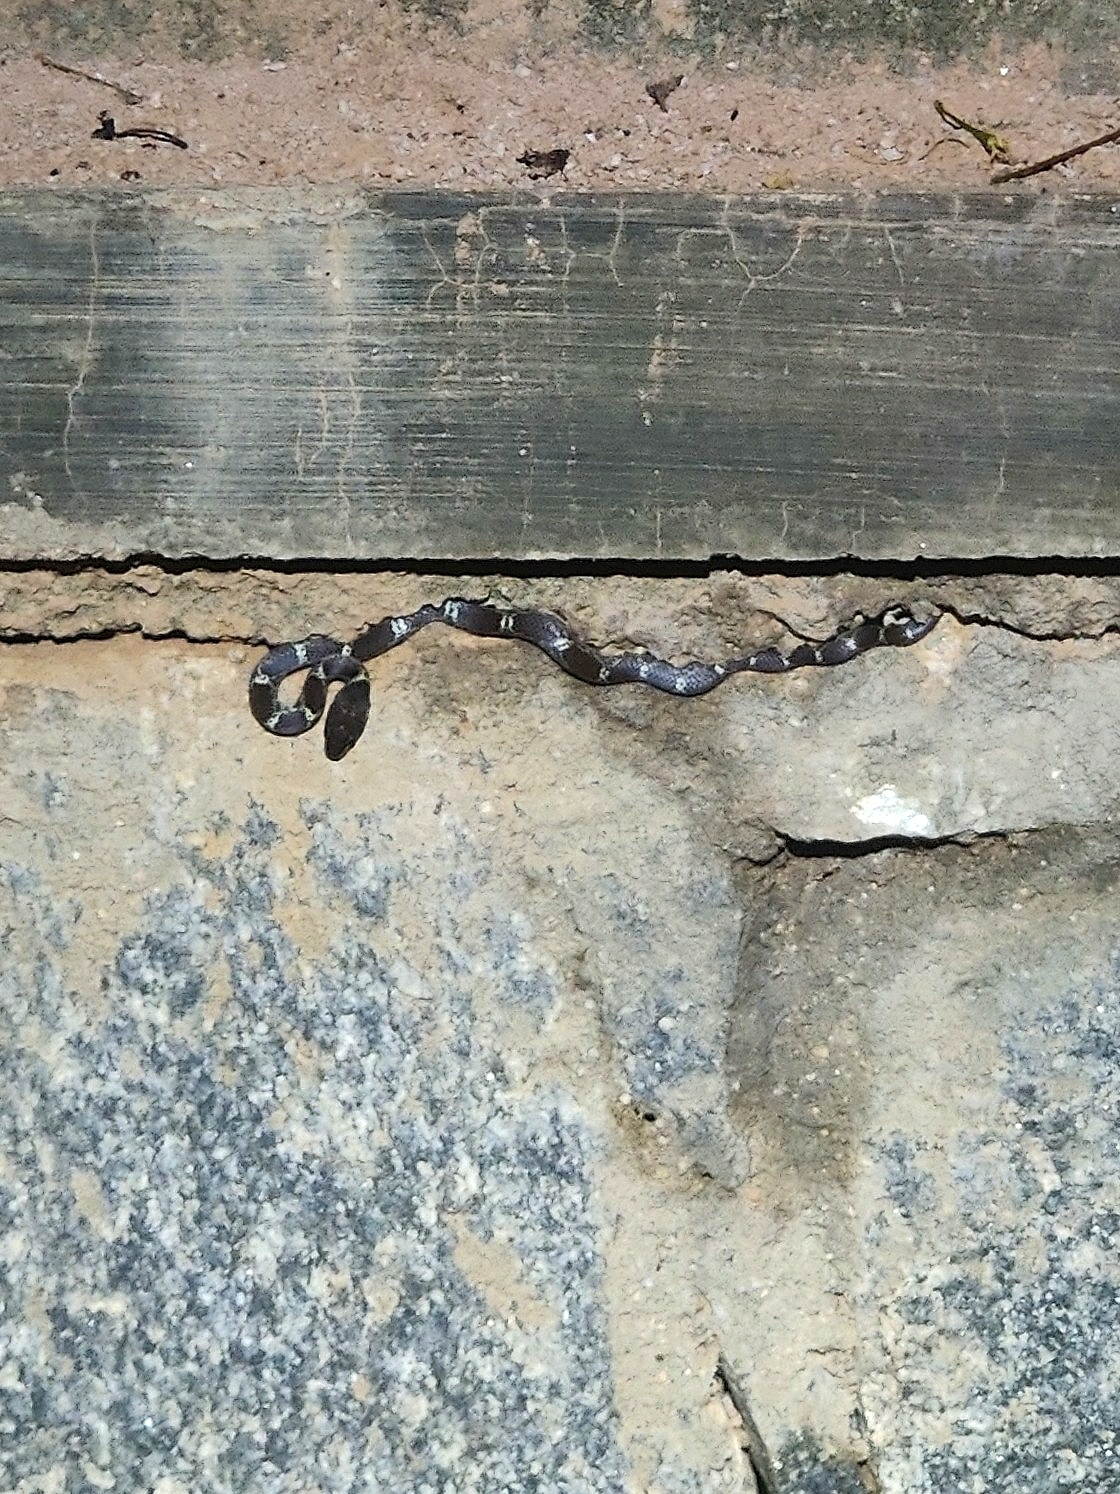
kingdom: Animalia
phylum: Chordata
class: Squamata
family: Colubridae
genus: Lycodon
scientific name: Lycodon fasciolatus
